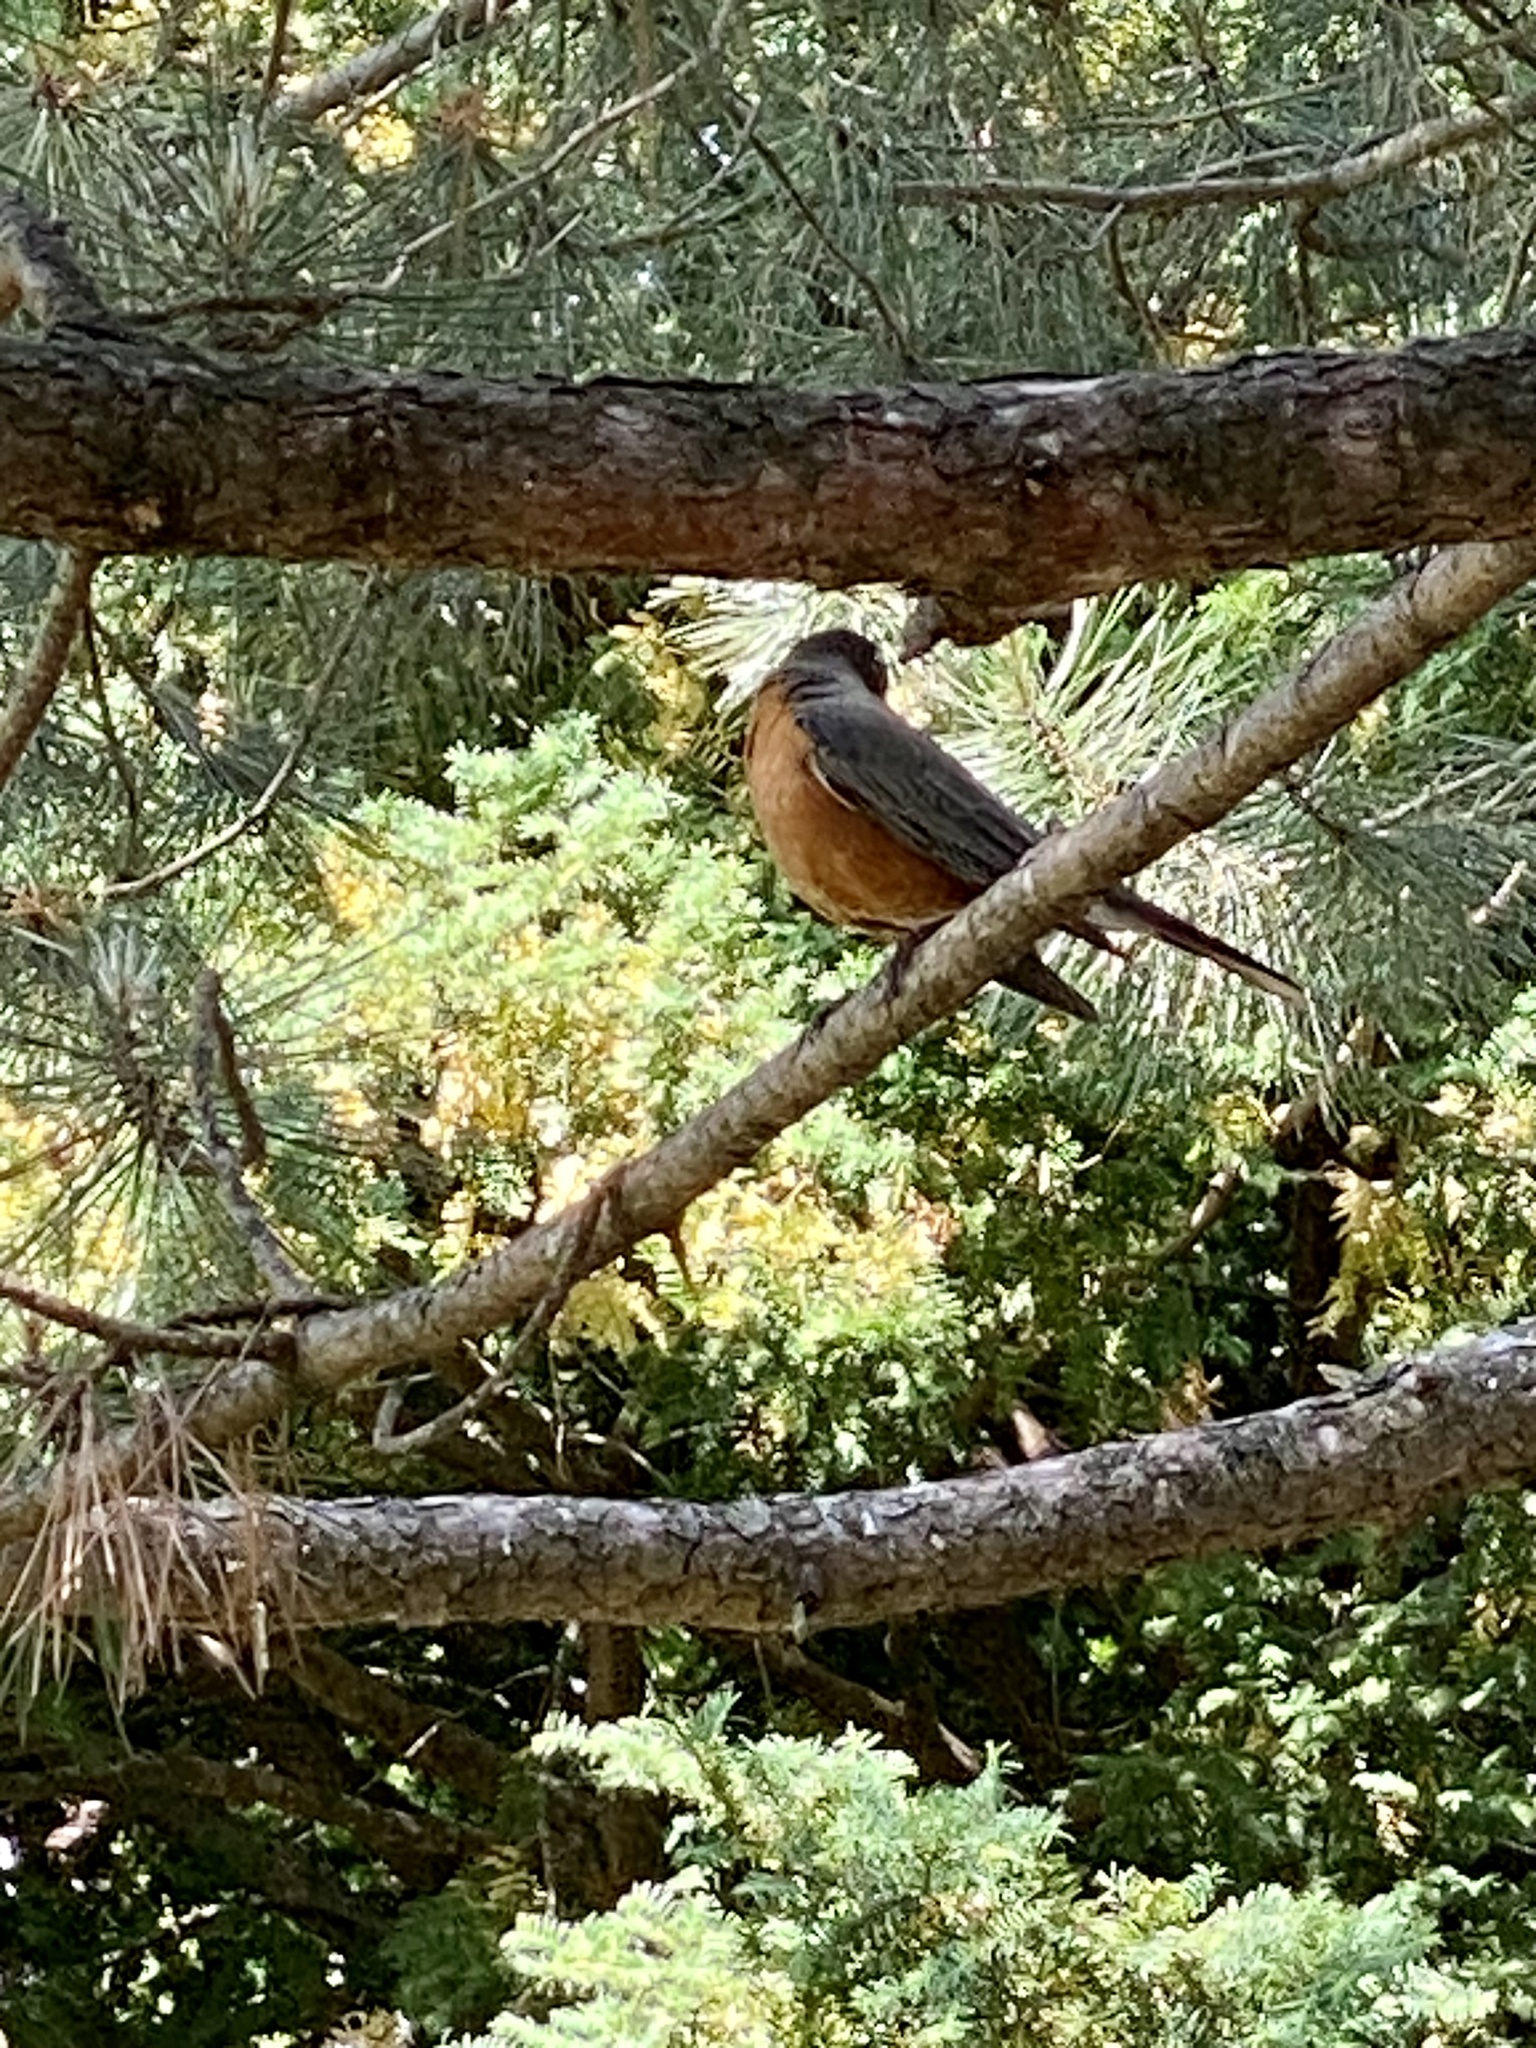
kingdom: Animalia
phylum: Chordata
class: Aves
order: Passeriformes
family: Turdidae
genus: Turdus
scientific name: Turdus migratorius
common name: American robin
